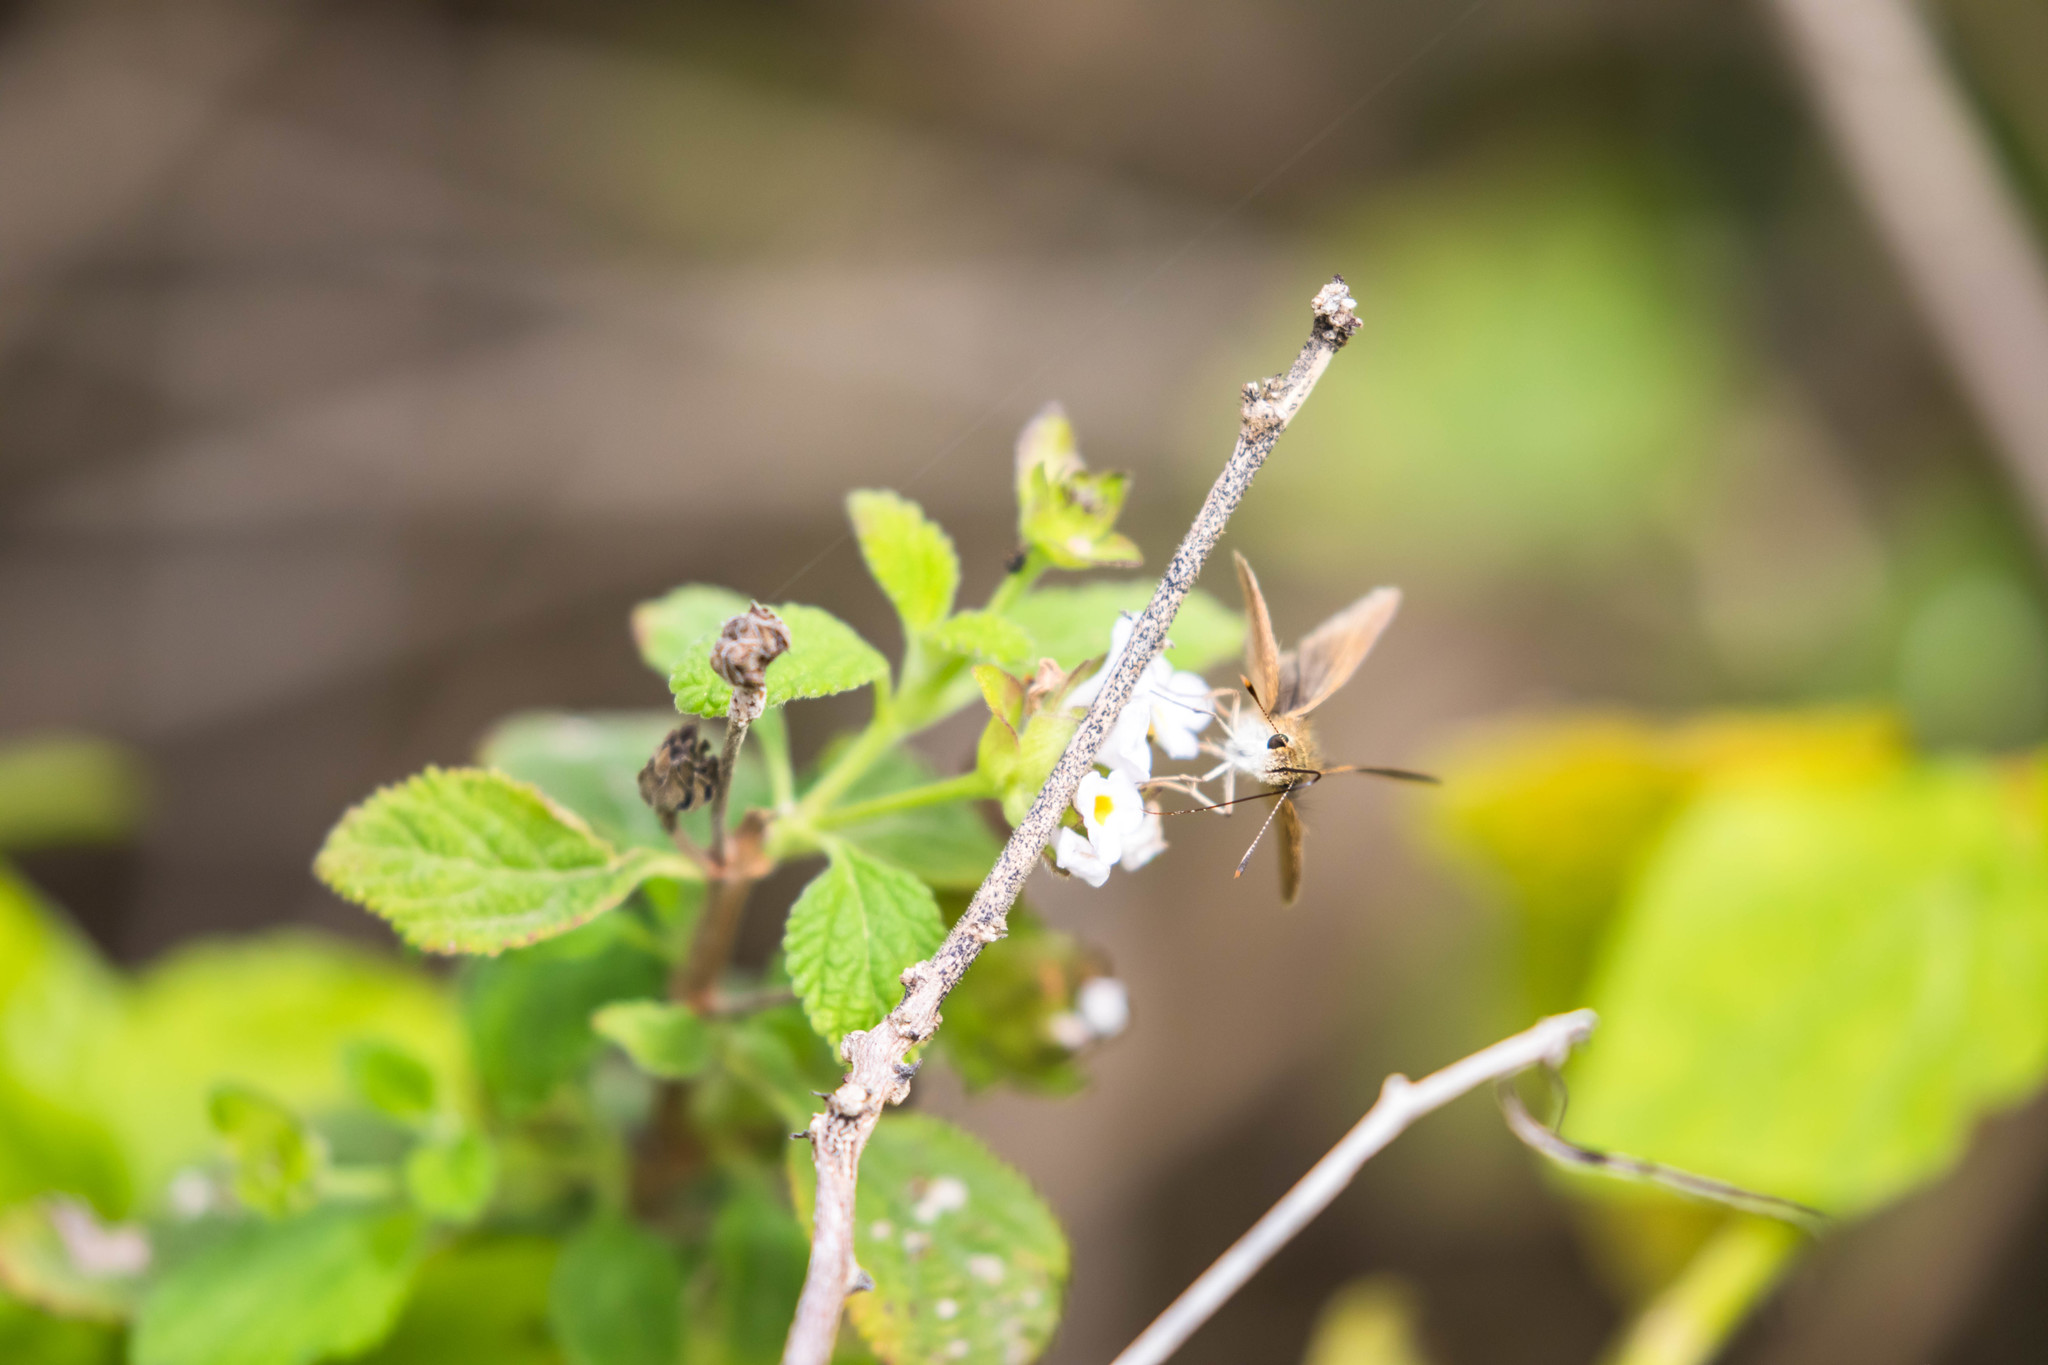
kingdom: Animalia
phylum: Arthropoda
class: Insecta
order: Lepidoptera
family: Hesperiidae
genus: Lerodea
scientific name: Lerodea eufala
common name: Eufala skipper
